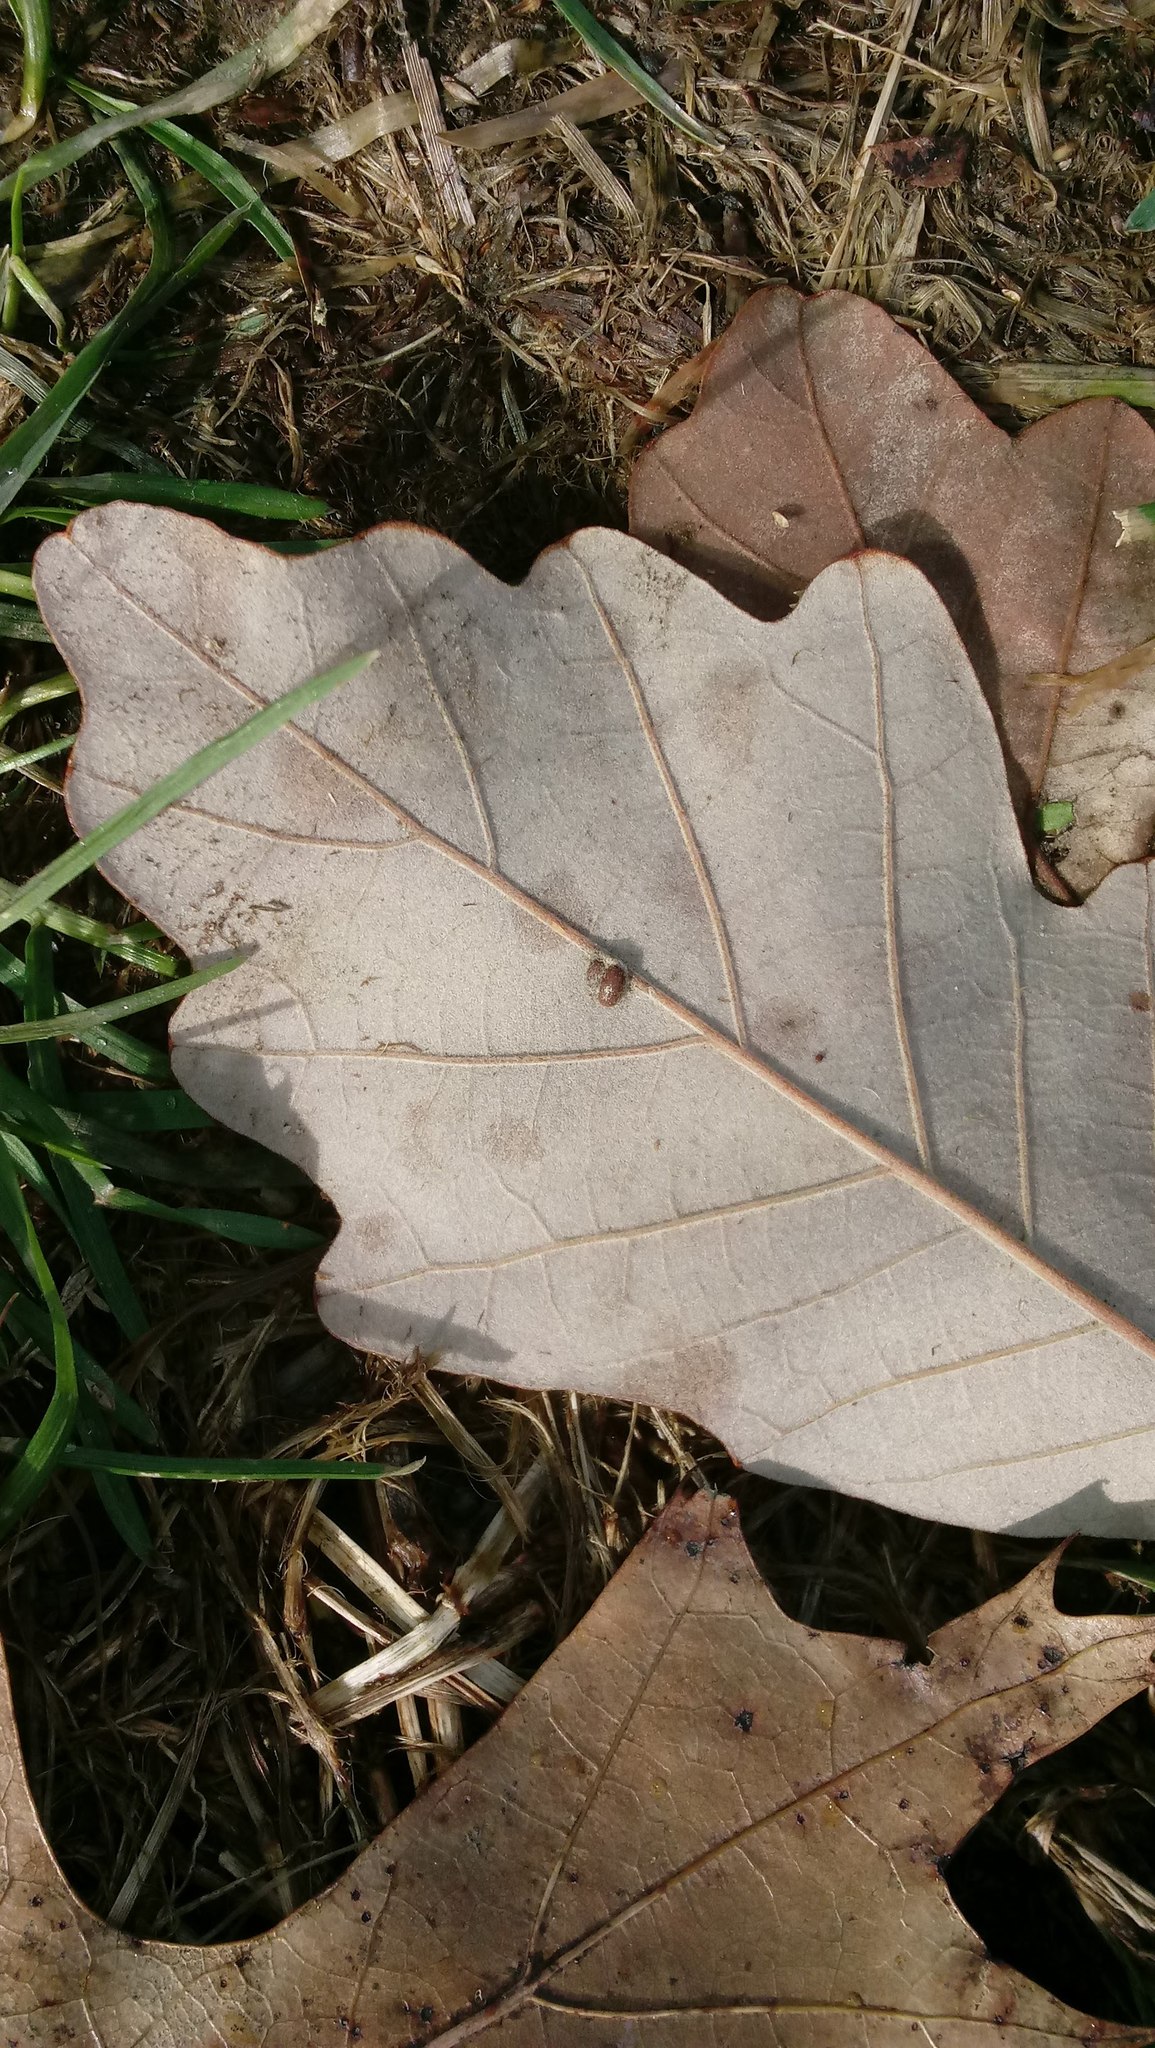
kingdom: Animalia
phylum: Arthropoda
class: Insecta
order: Hymenoptera
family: Cynipidae
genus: Andricus
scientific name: Andricus Druon ignotum
